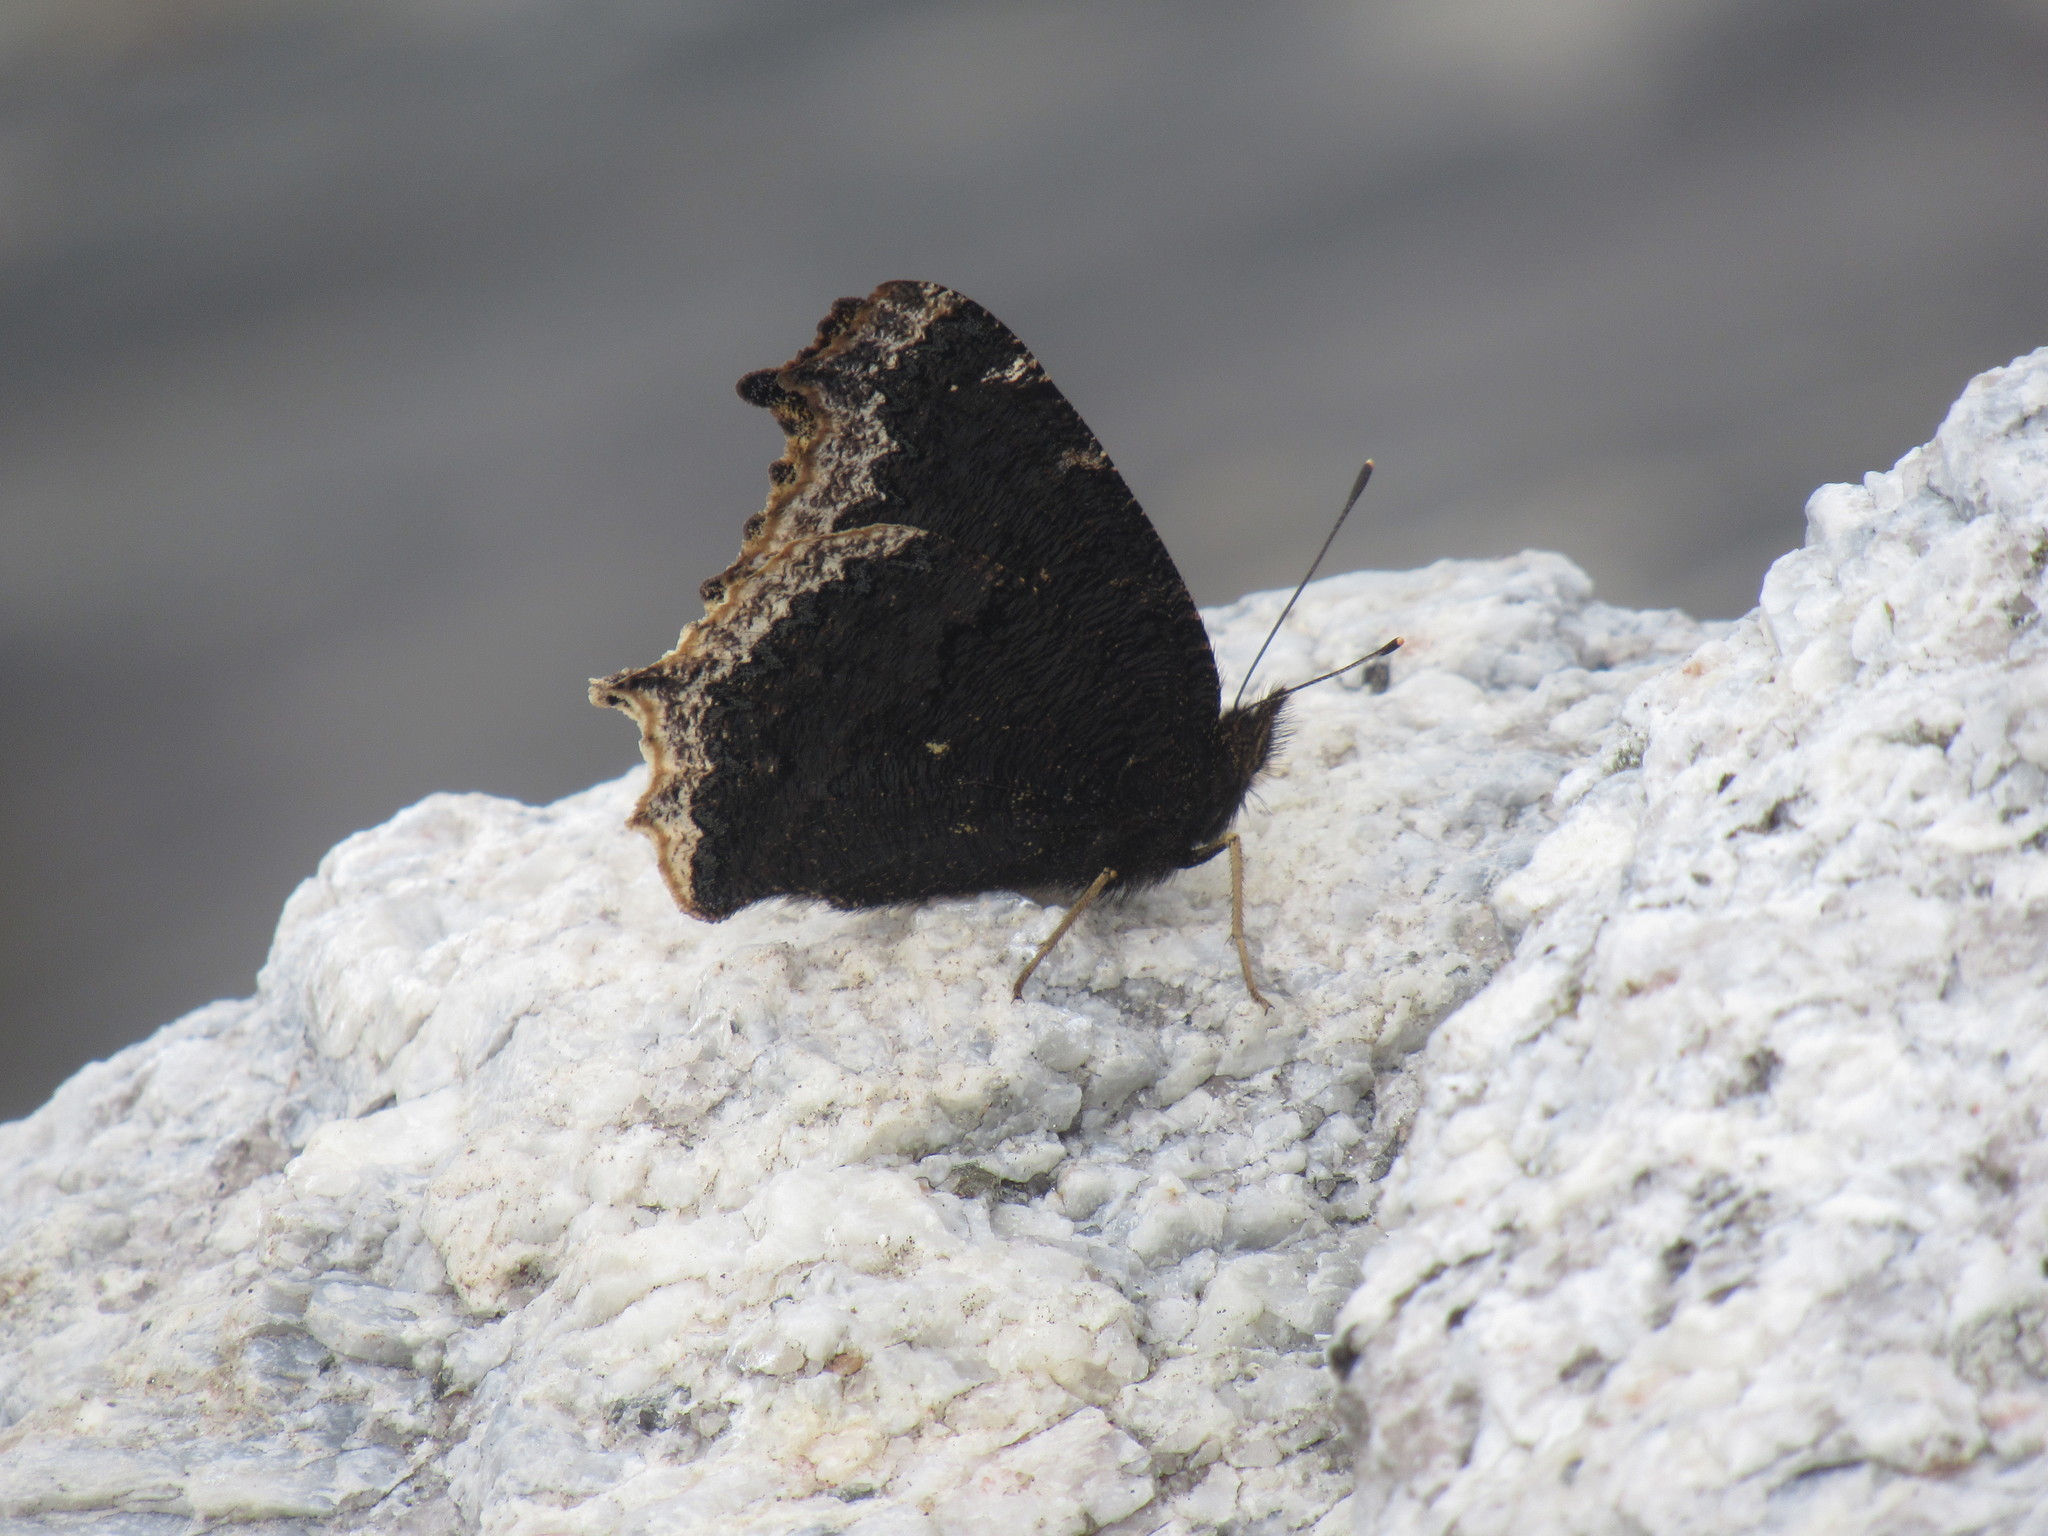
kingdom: Animalia
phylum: Arthropoda
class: Insecta
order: Lepidoptera
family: Nymphalidae
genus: Nymphalis
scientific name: Nymphalis antiopa
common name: Camberwell beauty
